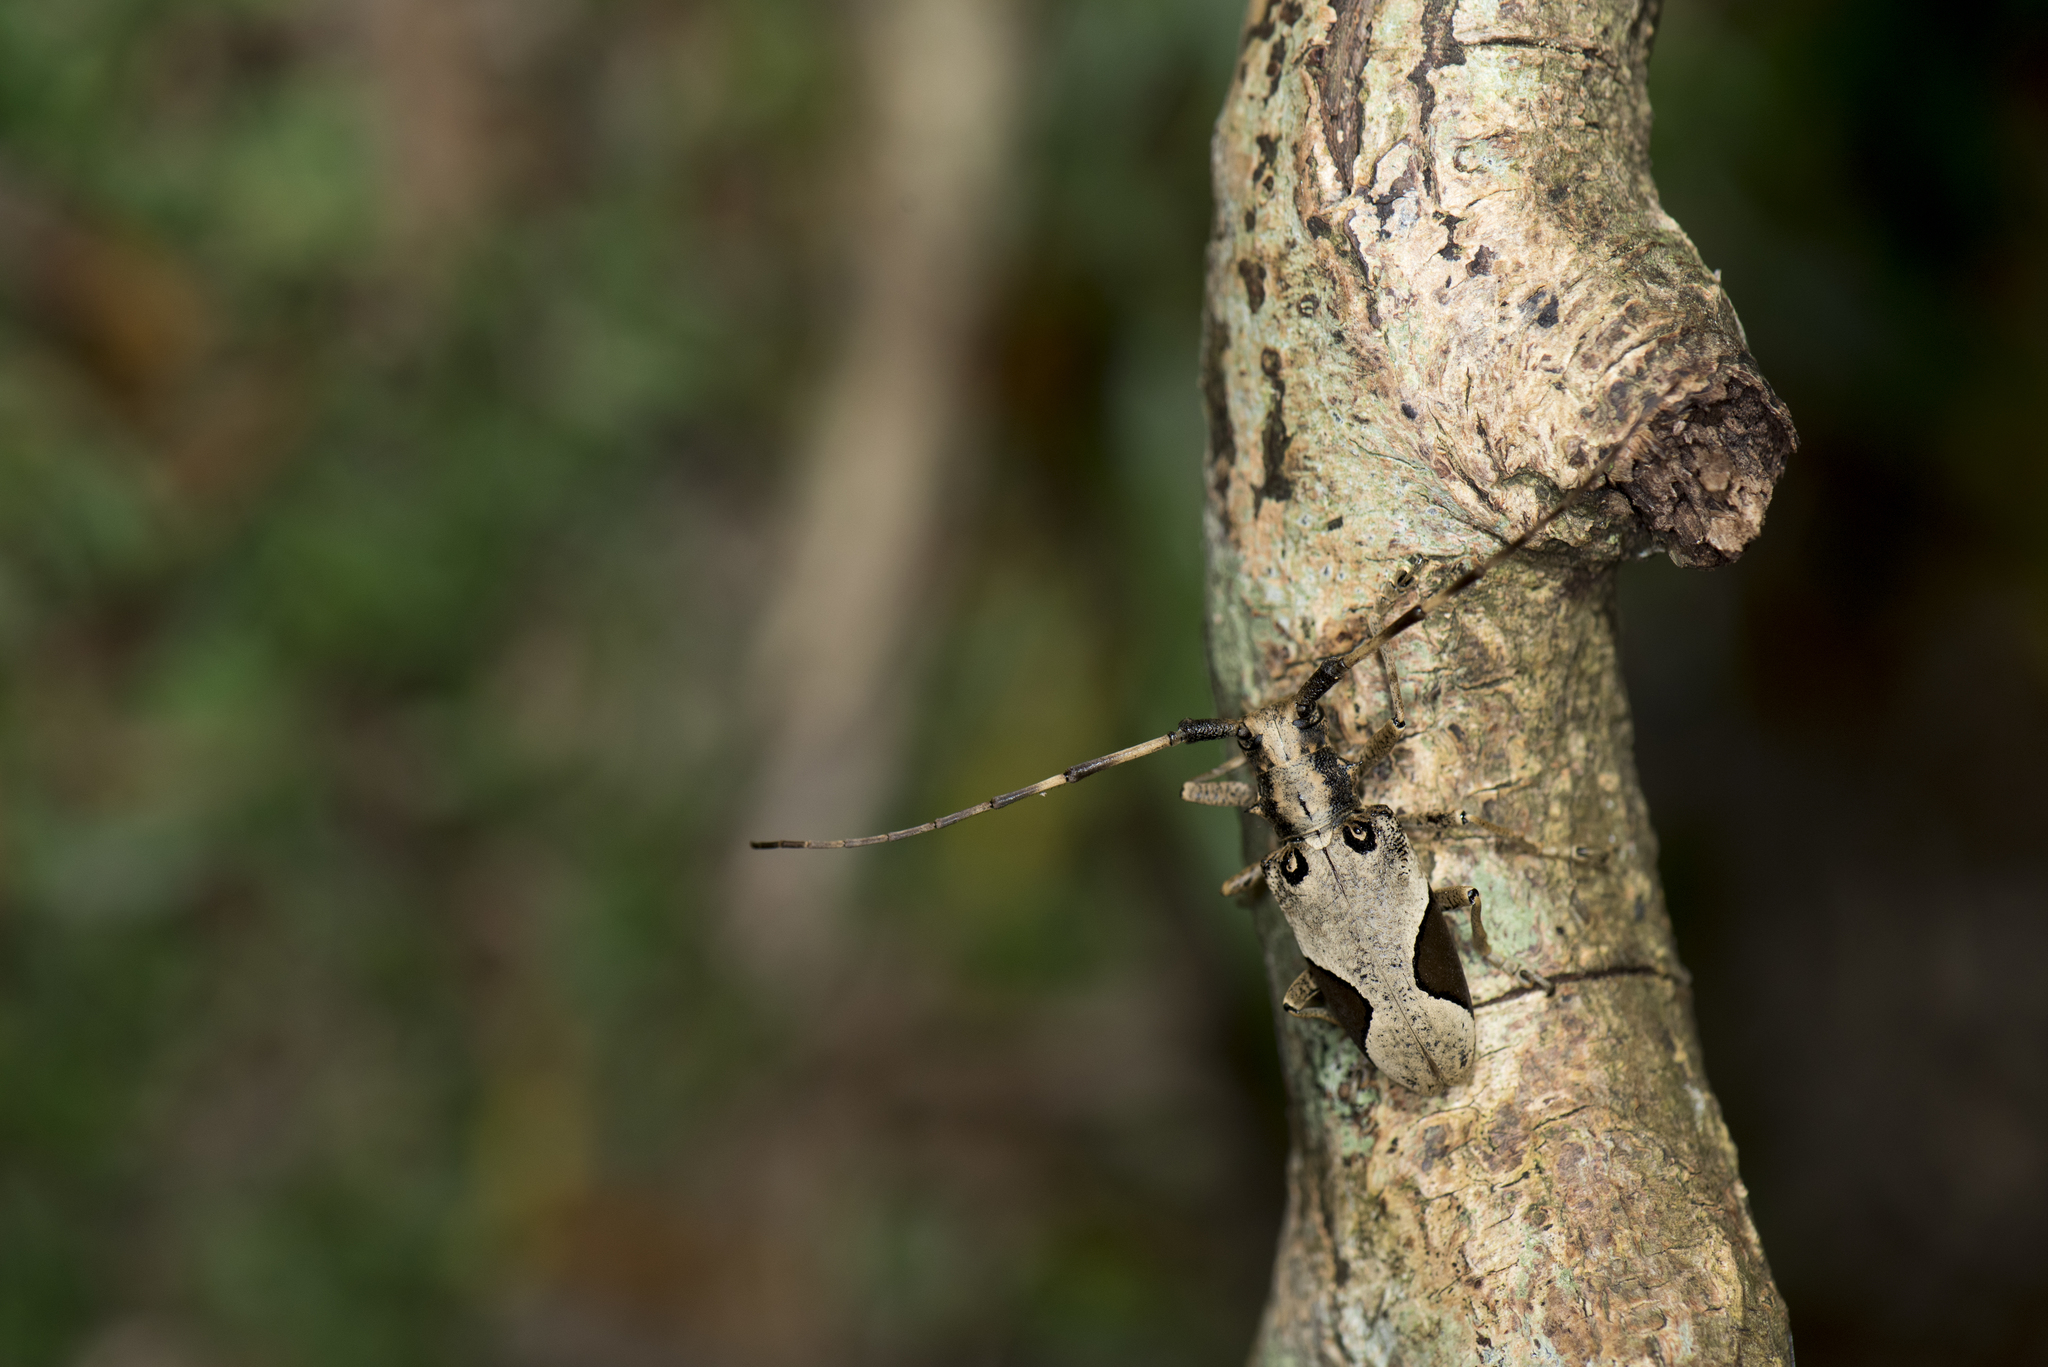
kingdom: Animalia
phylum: Arthropoda
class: Insecta
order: Coleoptera
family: Cerambycidae
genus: Paraleprodera
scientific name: Paraleprodera diophthalma
